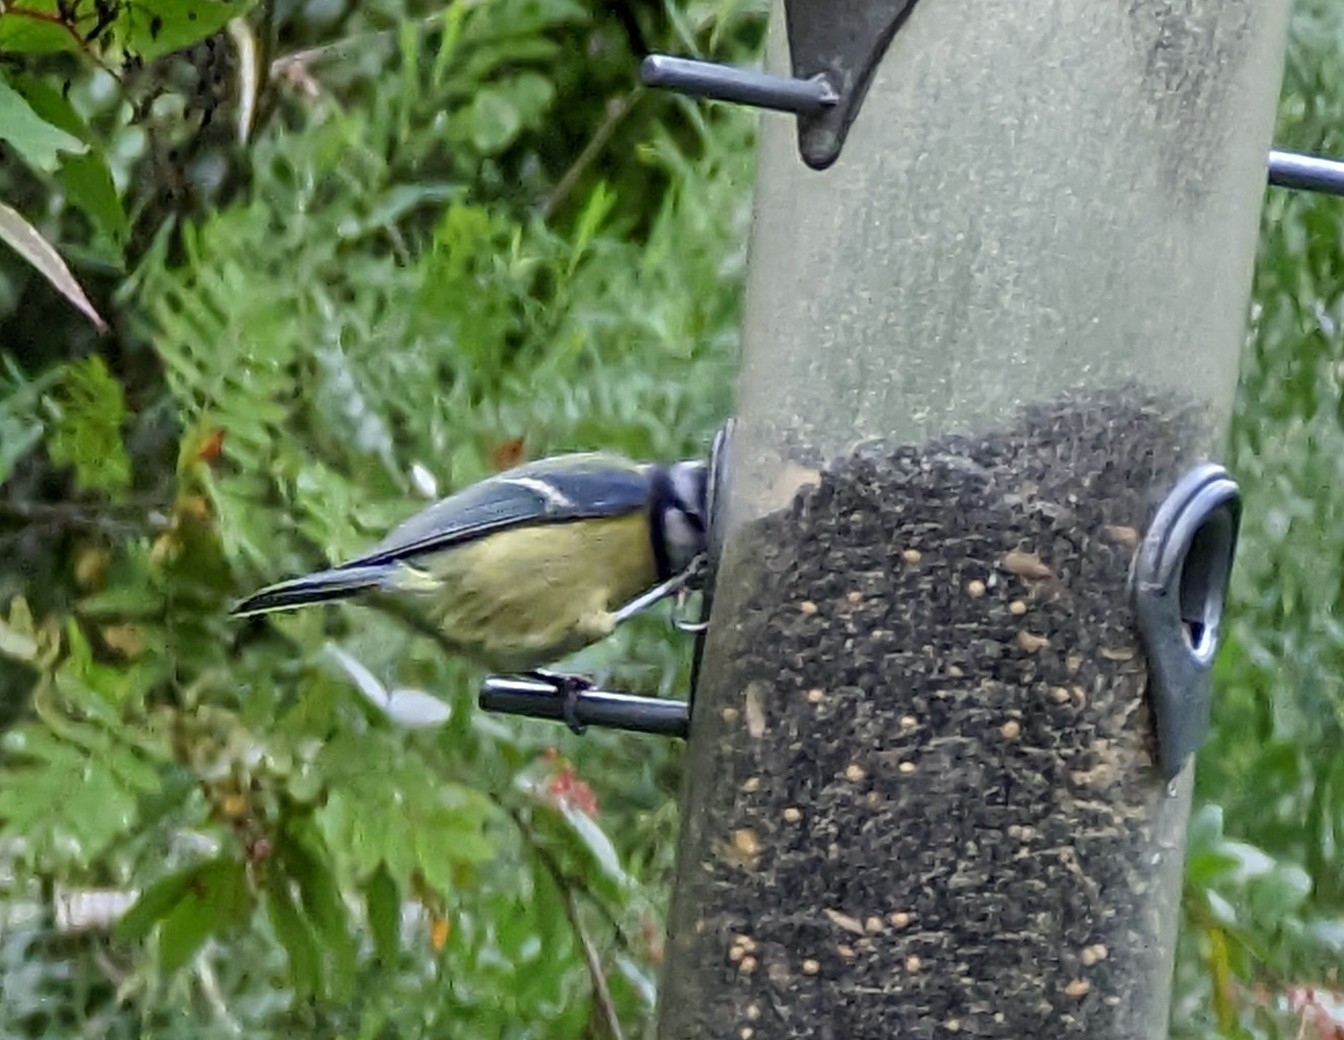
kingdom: Animalia
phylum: Chordata
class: Aves
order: Passeriformes
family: Paridae
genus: Cyanistes
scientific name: Cyanistes caeruleus
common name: Eurasian blue tit
